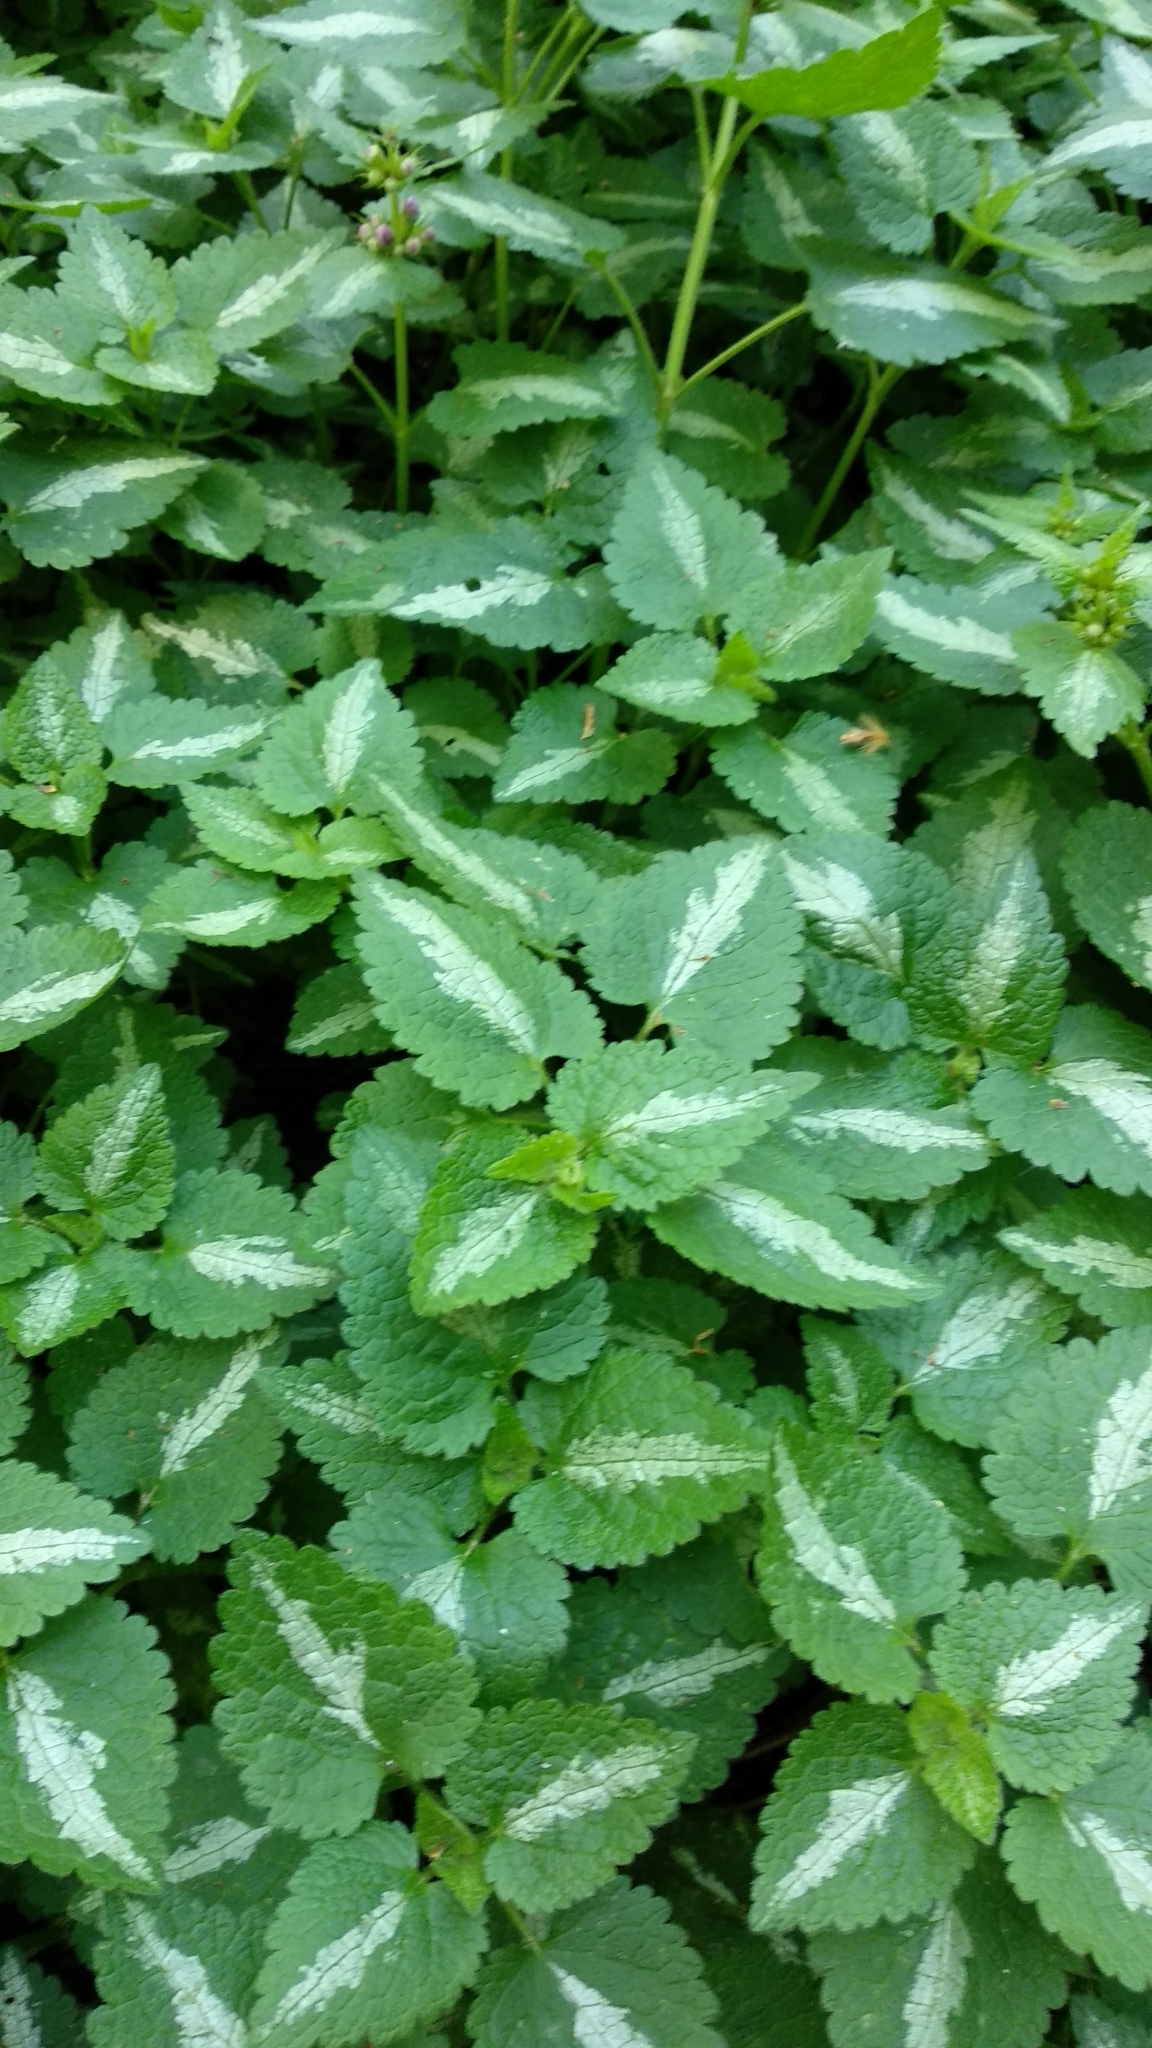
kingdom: Plantae
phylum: Tracheophyta
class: Magnoliopsida
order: Lamiales
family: Lamiaceae
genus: Lamium
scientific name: Lamium maculatum
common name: Spotted dead-nettle
